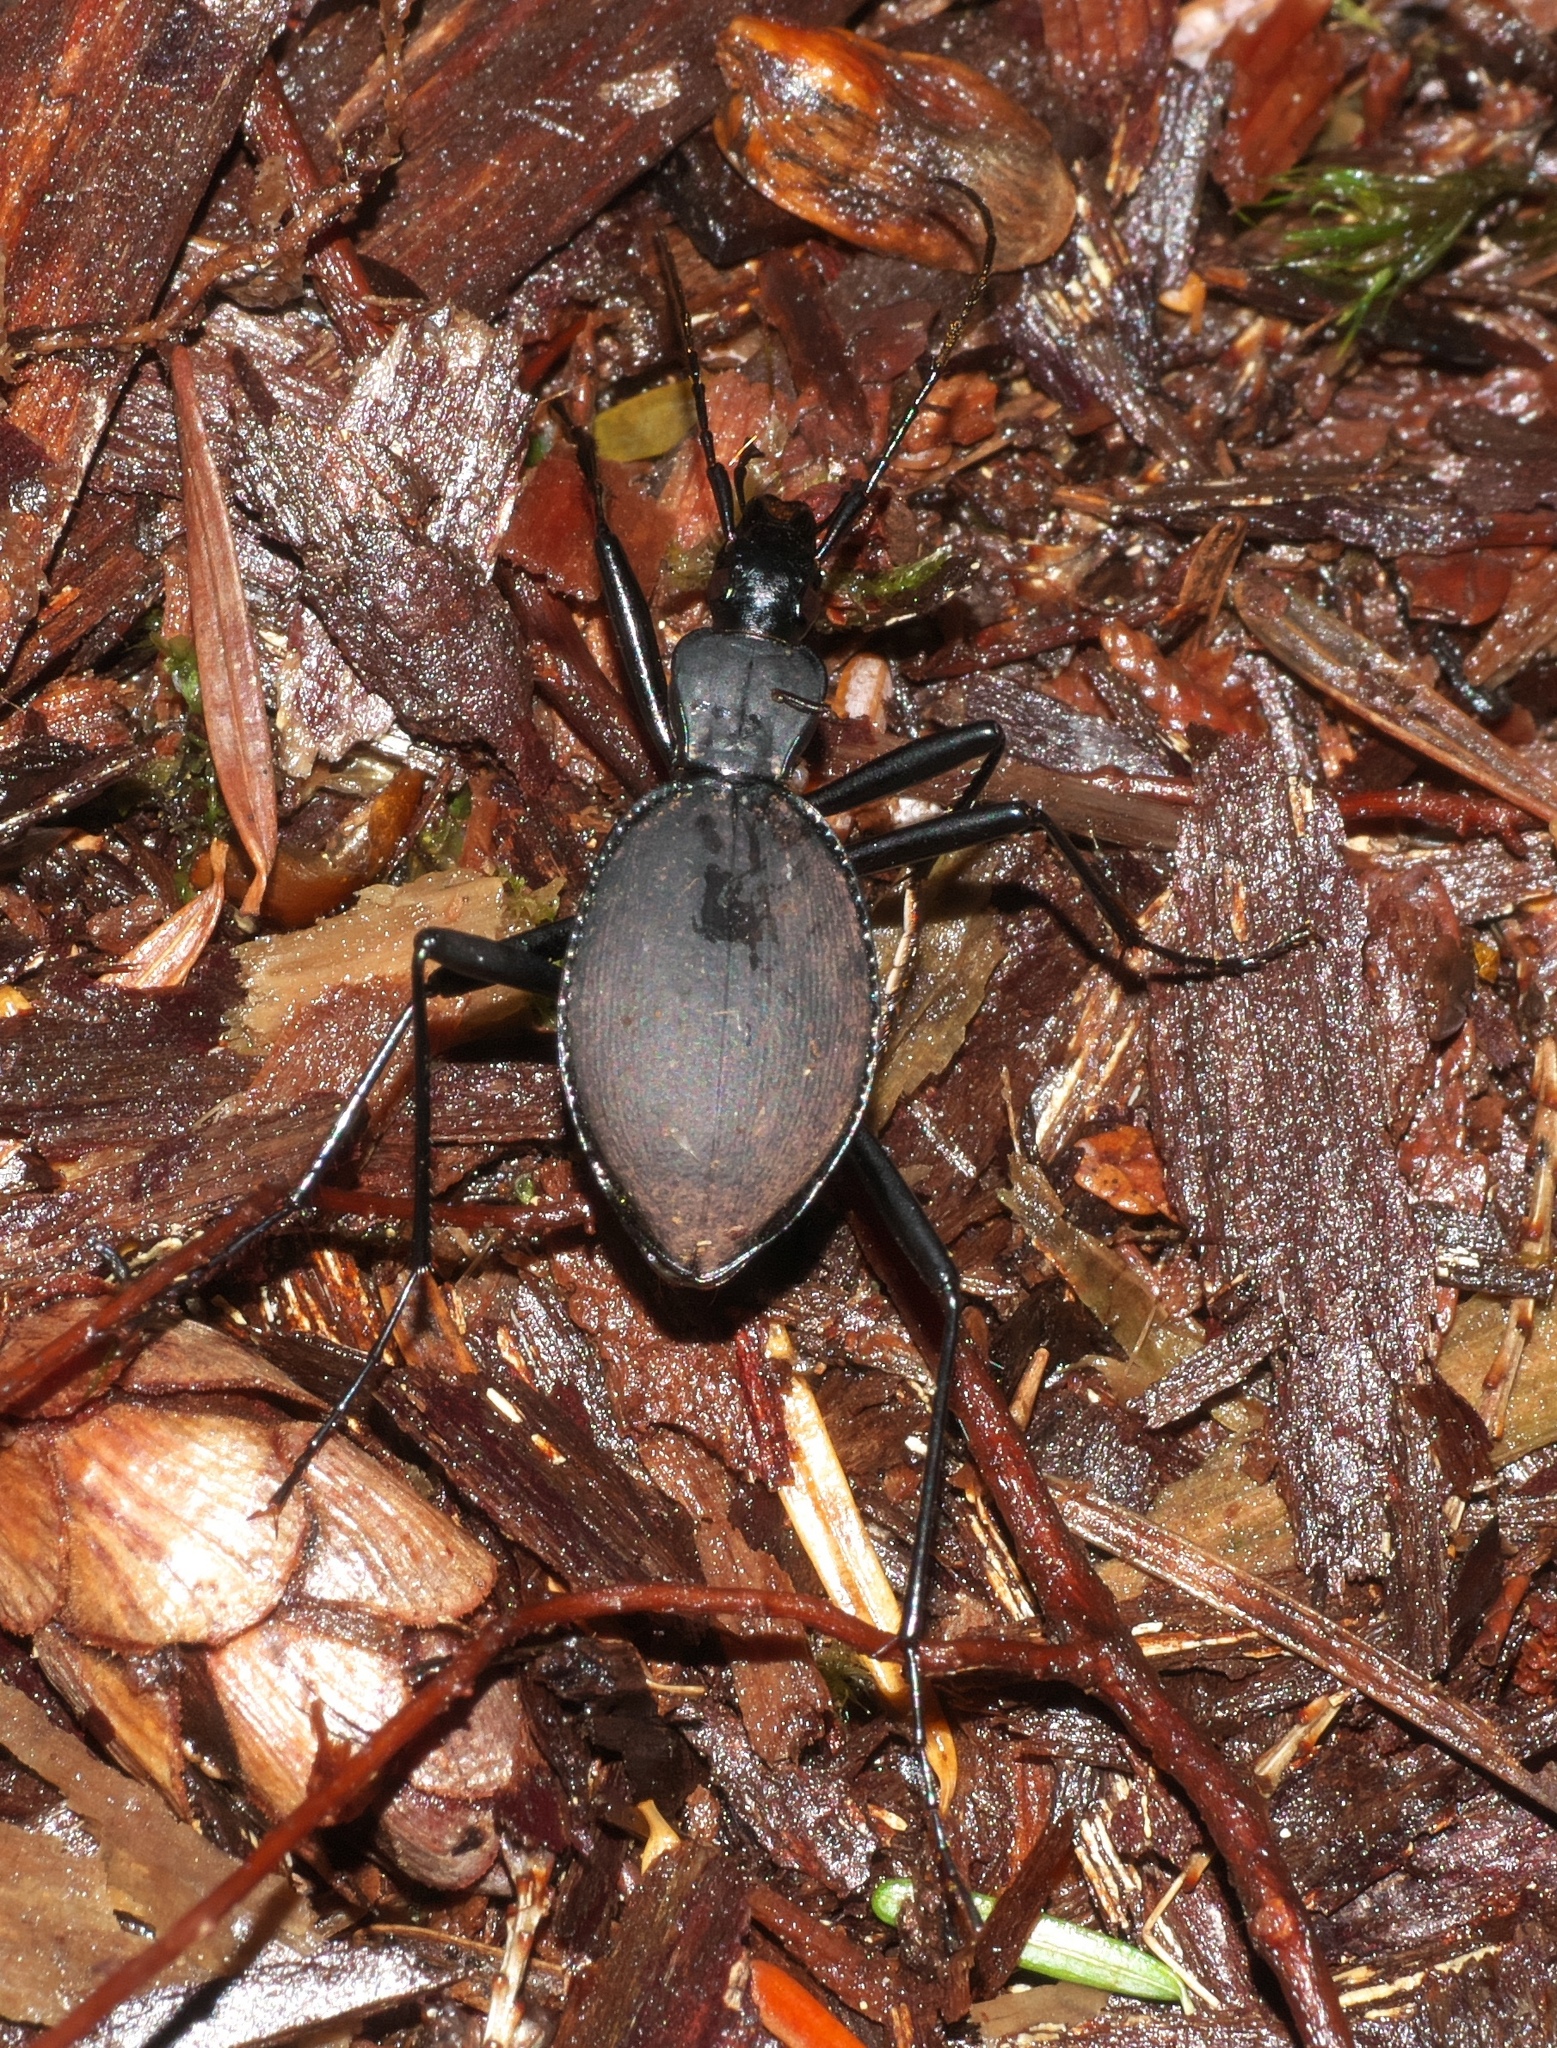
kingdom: Animalia
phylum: Arthropoda
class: Insecta
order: Coleoptera
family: Carabidae
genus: Scaphinotus
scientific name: Scaphinotus angusticollis
